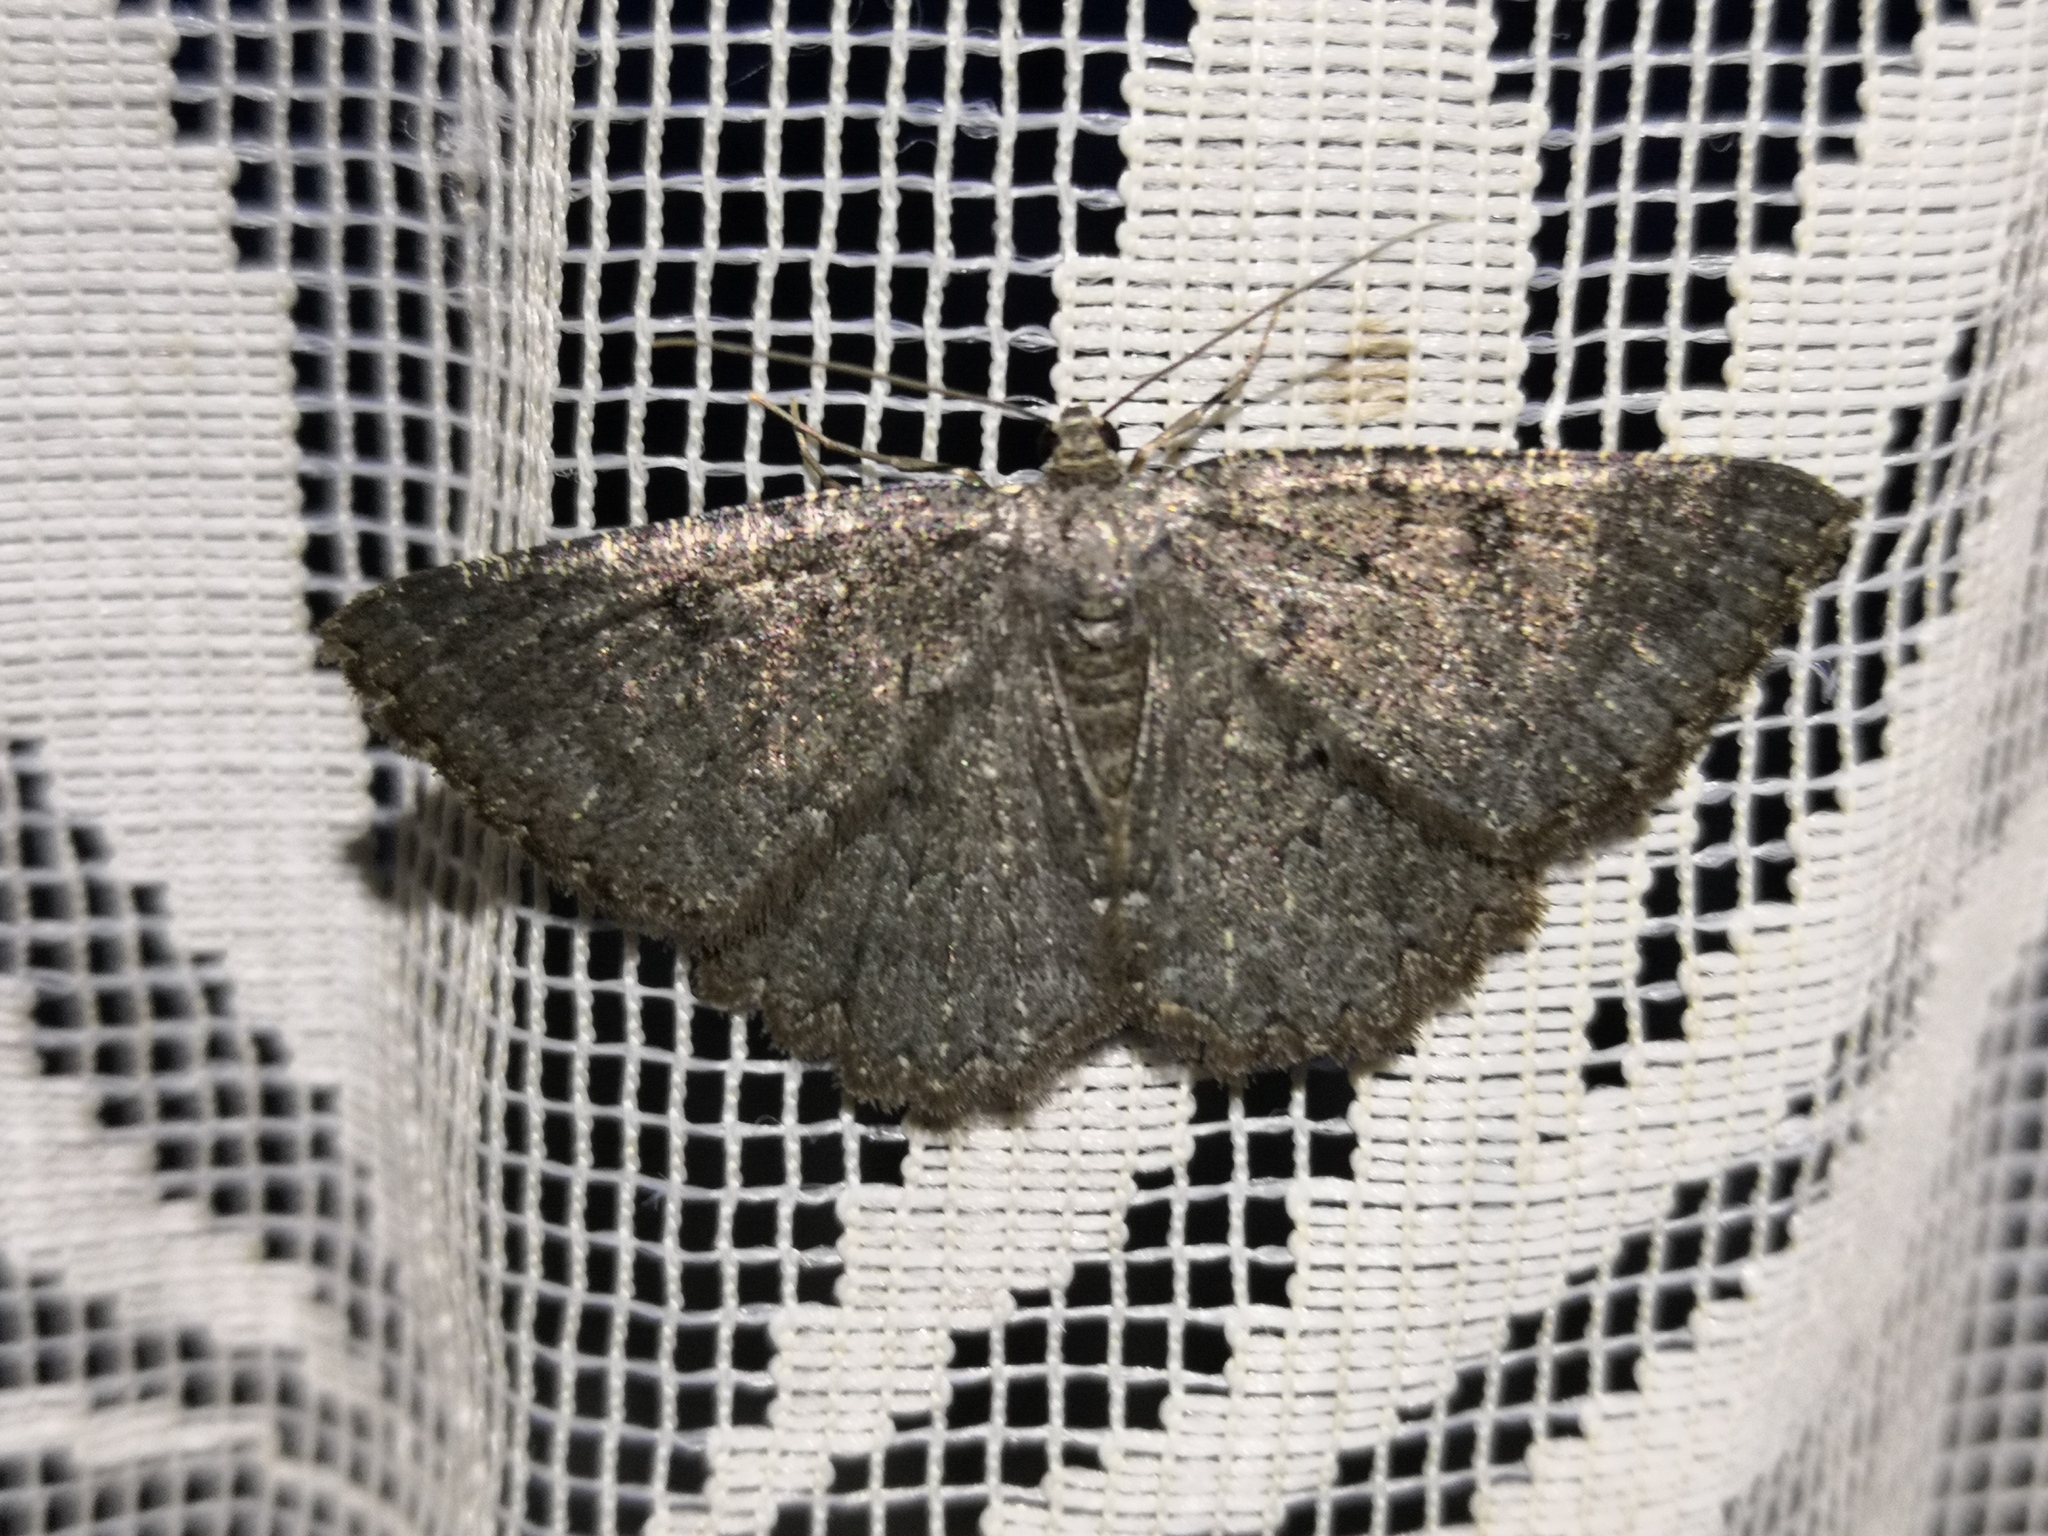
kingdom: Animalia
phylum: Arthropoda
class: Insecta
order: Lepidoptera
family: Geometridae
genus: Charissa
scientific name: Charissa obscurata
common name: Annulet
